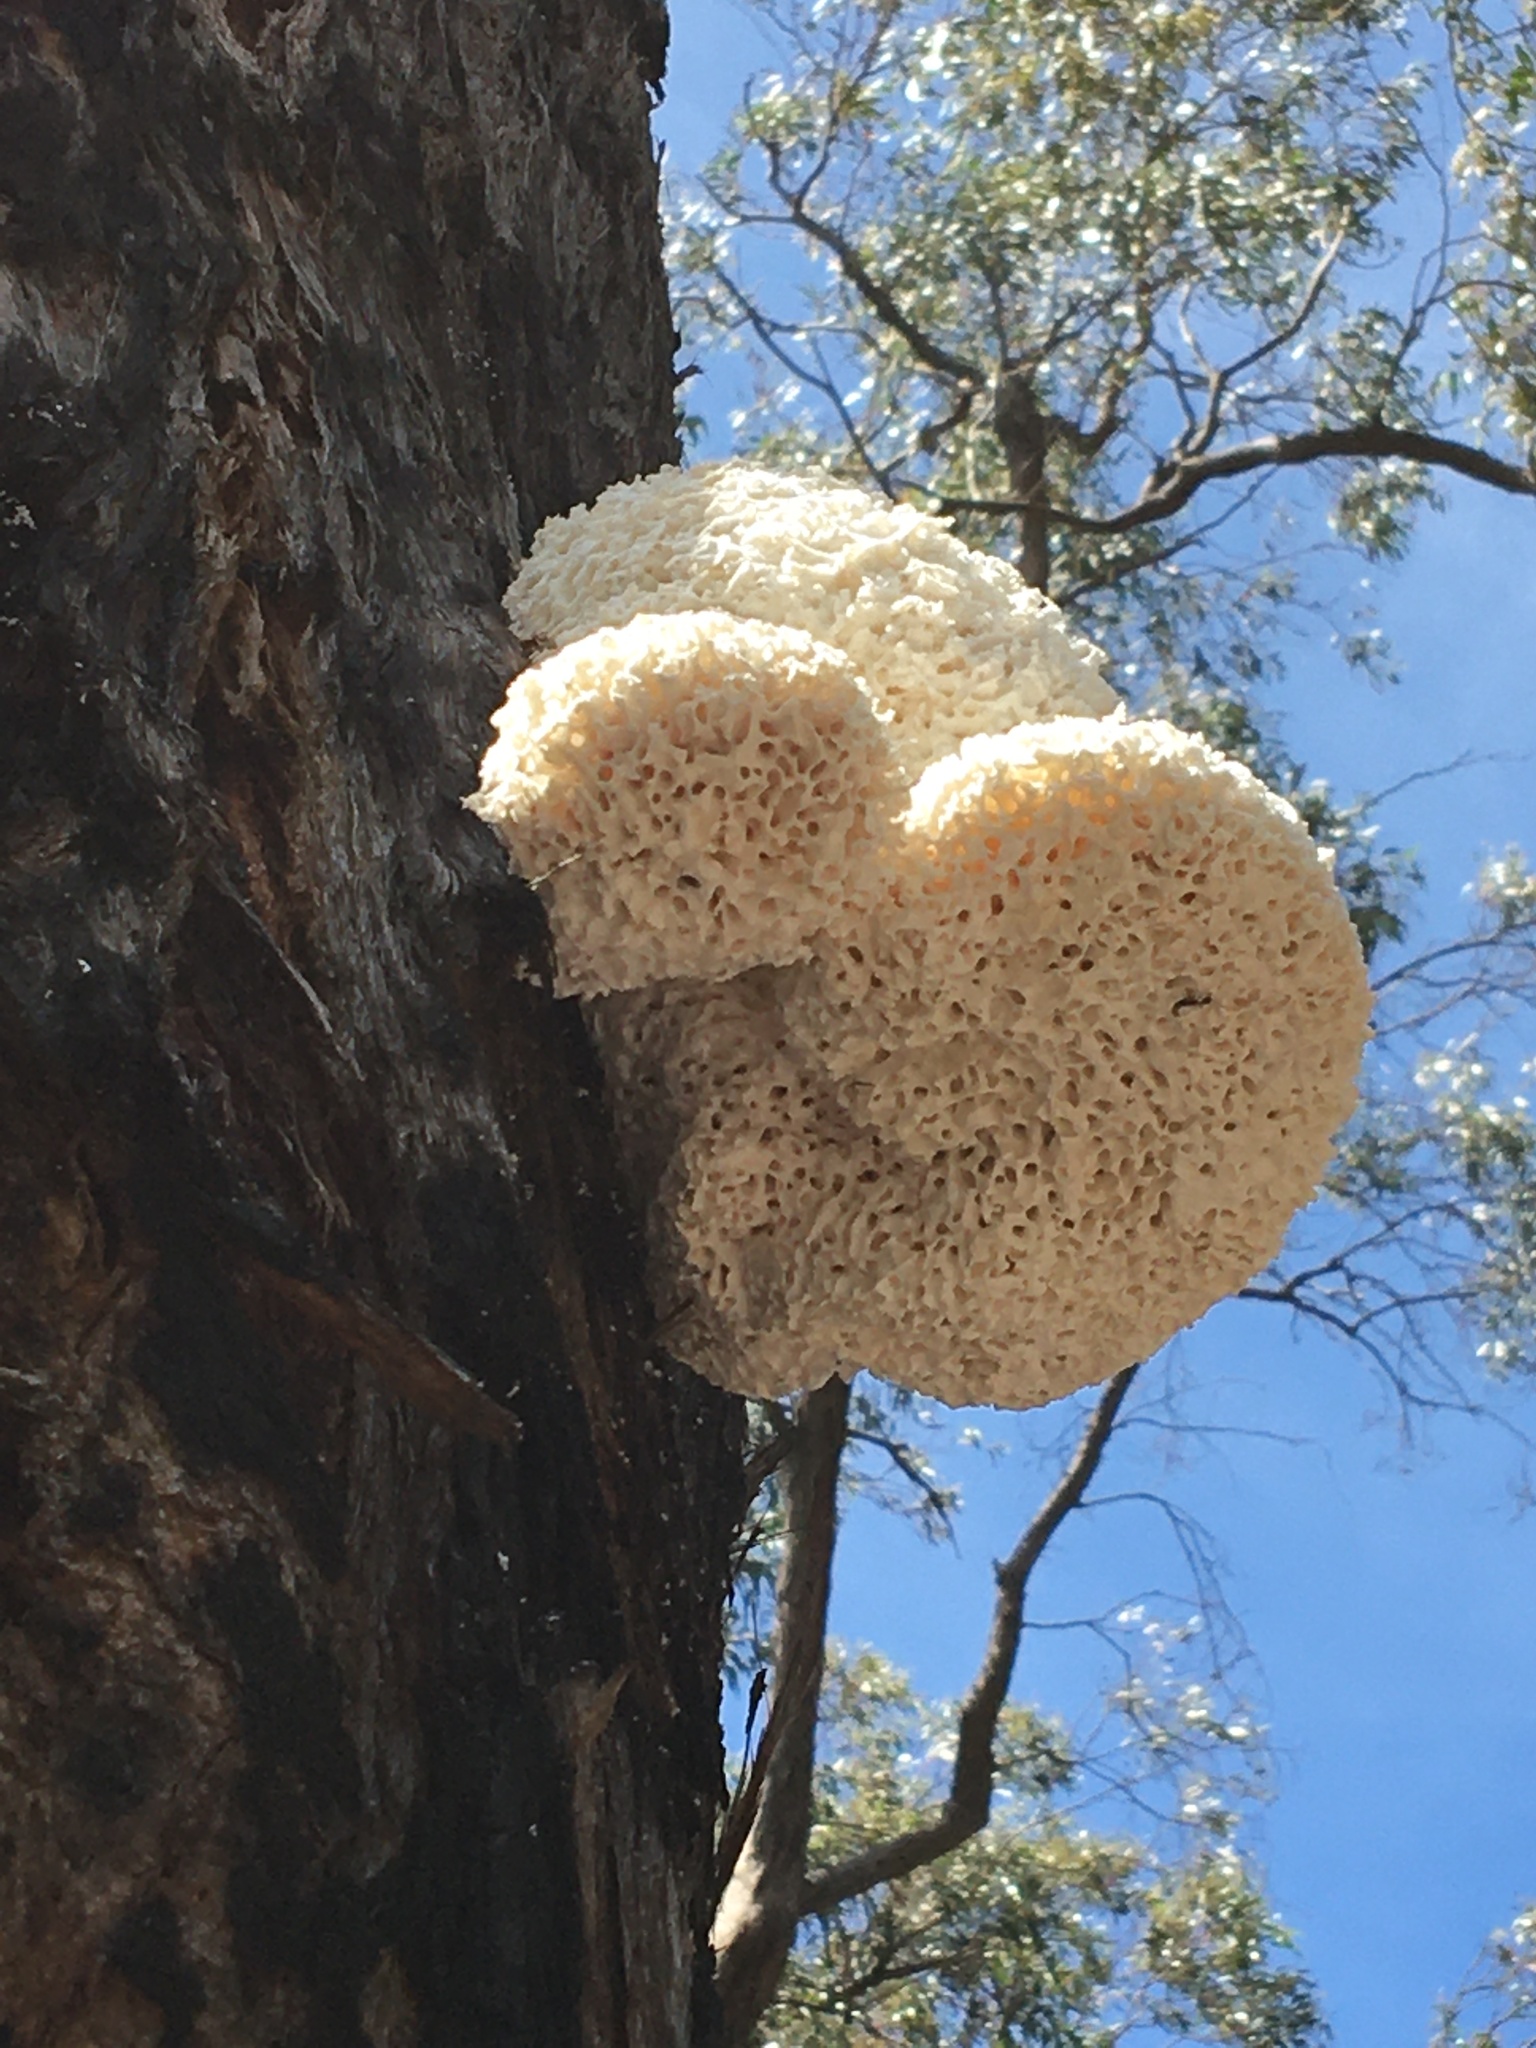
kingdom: Fungi
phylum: Basidiomycota
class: Agaricomycetes
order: Polyporales
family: Laetiporaceae
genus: Laetiporus
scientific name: Laetiporus portentosus
